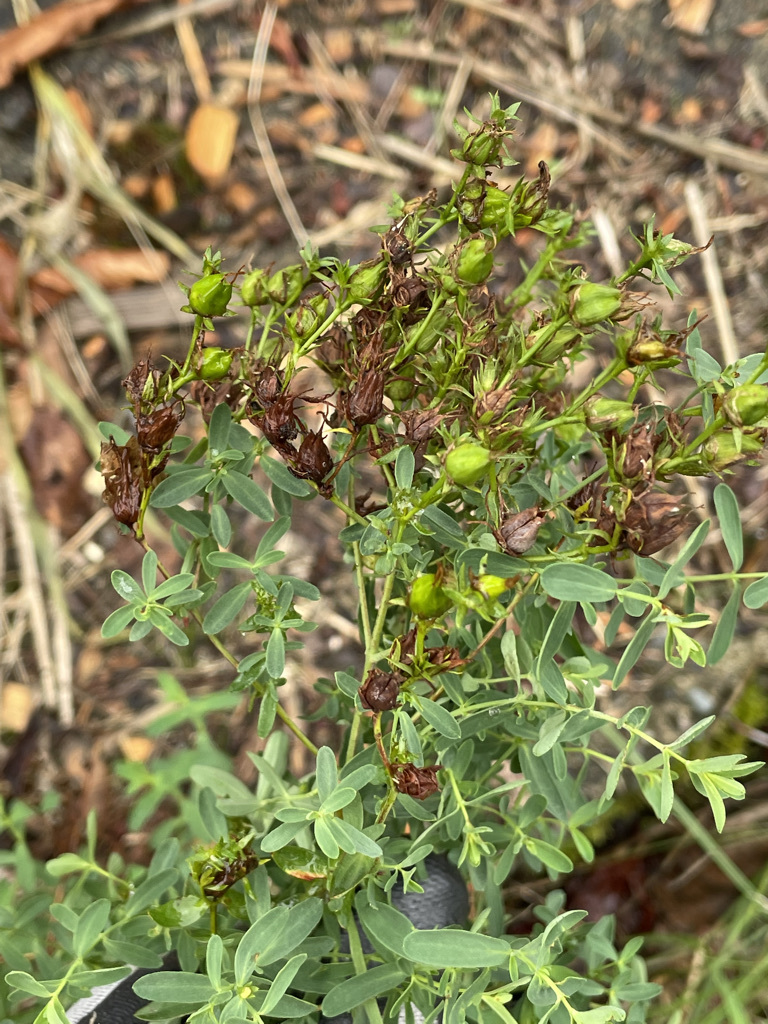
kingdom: Plantae
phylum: Tracheophyta
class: Magnoliopsida
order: Malpighiales
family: Hypericaceae
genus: Hypericum
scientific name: Hypericum perforatum
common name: Common st. johnswort
